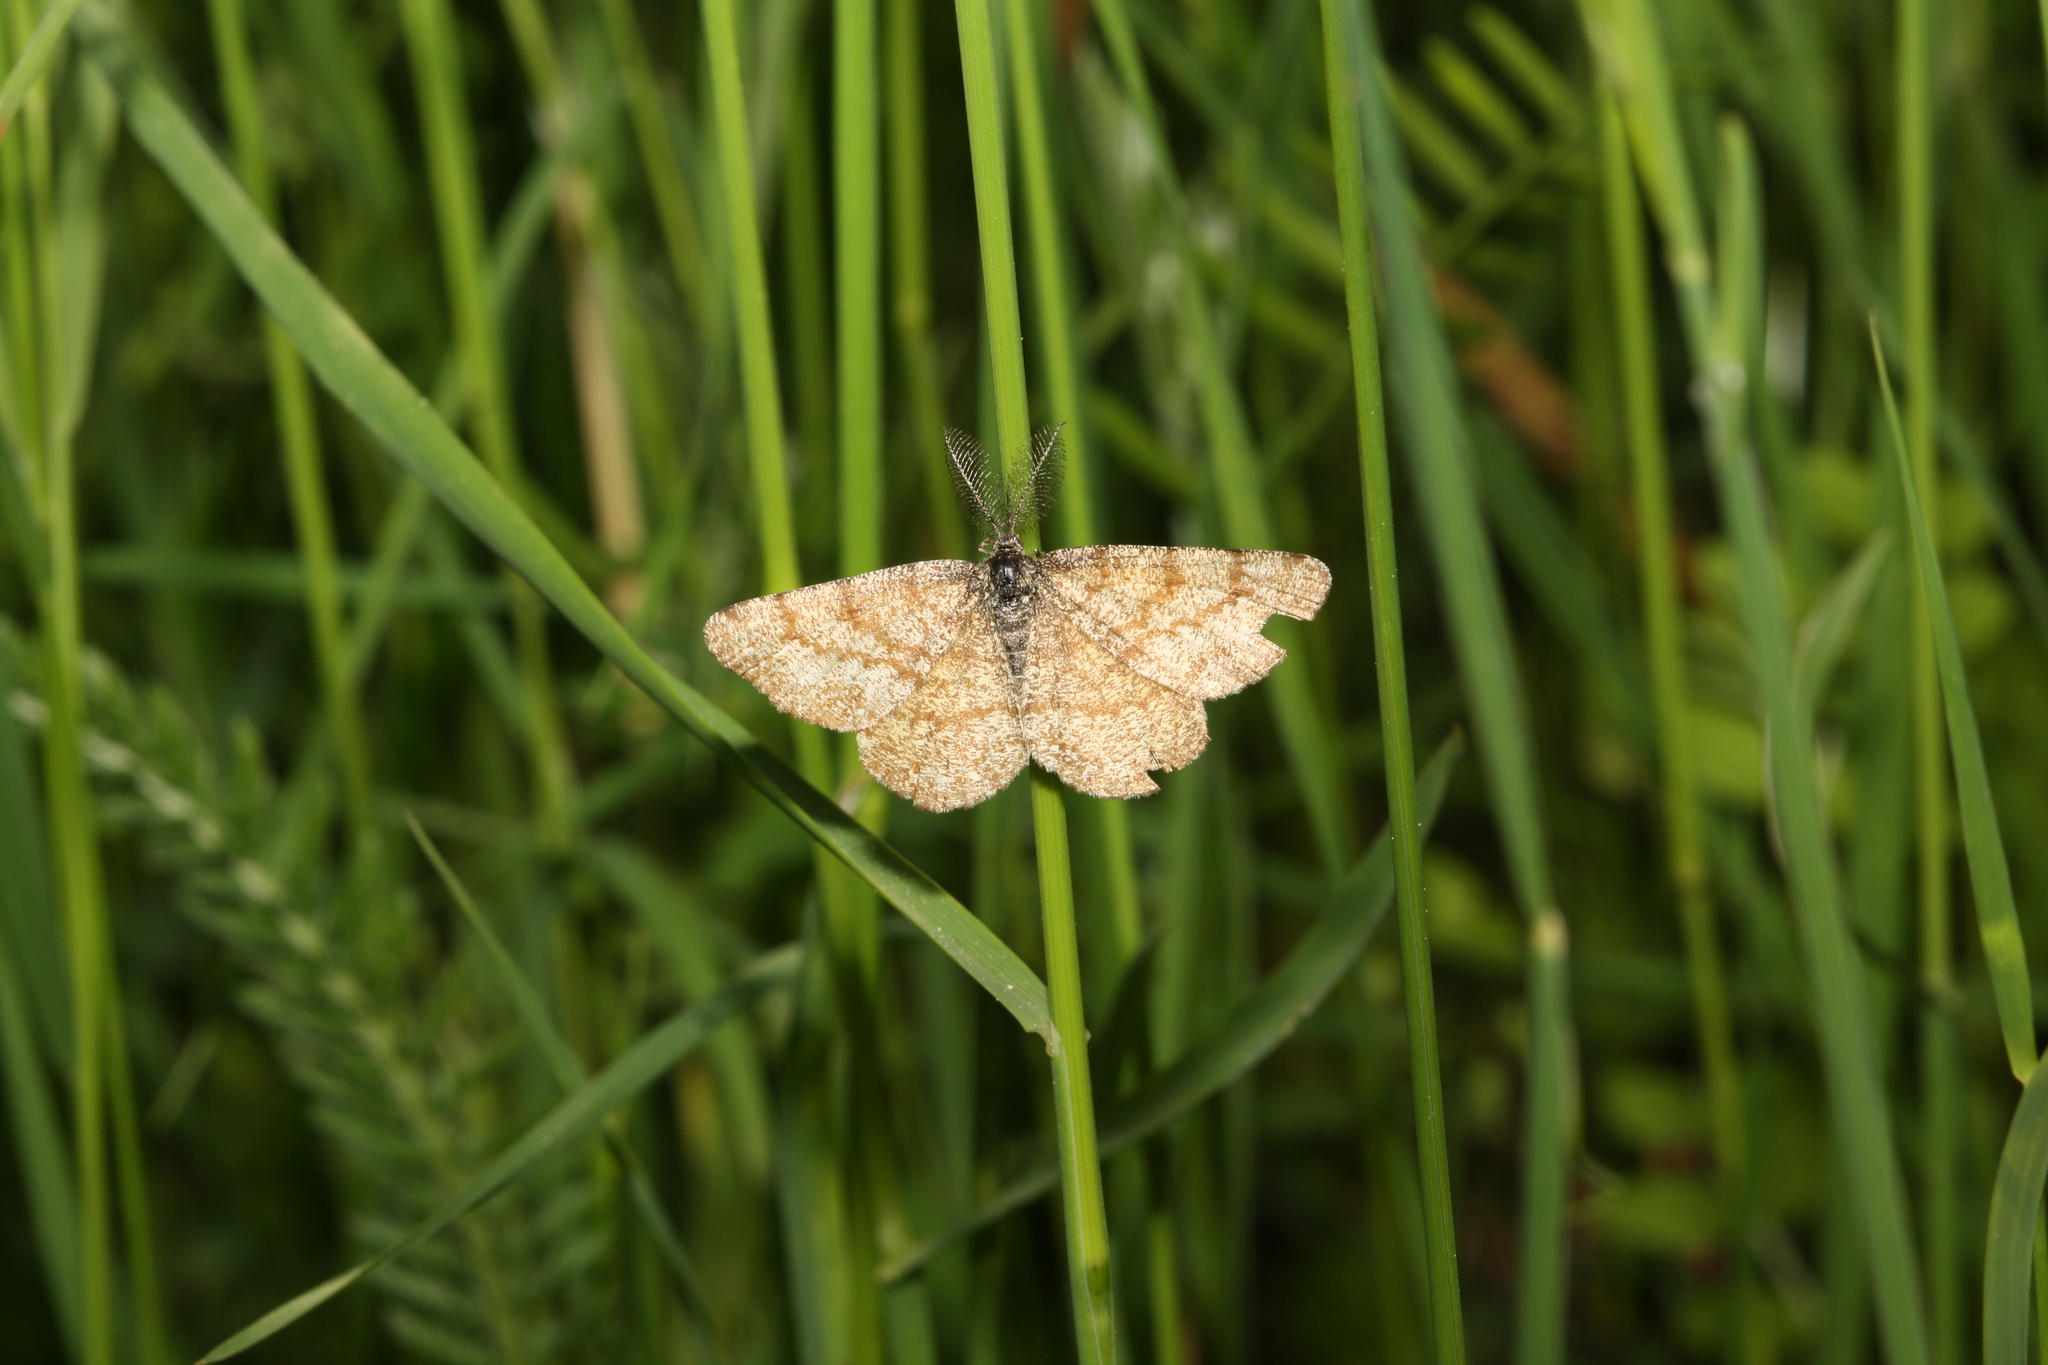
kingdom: Animalia
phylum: Arthropoda
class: Insecta
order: Lepidoptera
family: Geometridae
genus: Ematurga
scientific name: Ematurga atomaria
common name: Common heath
